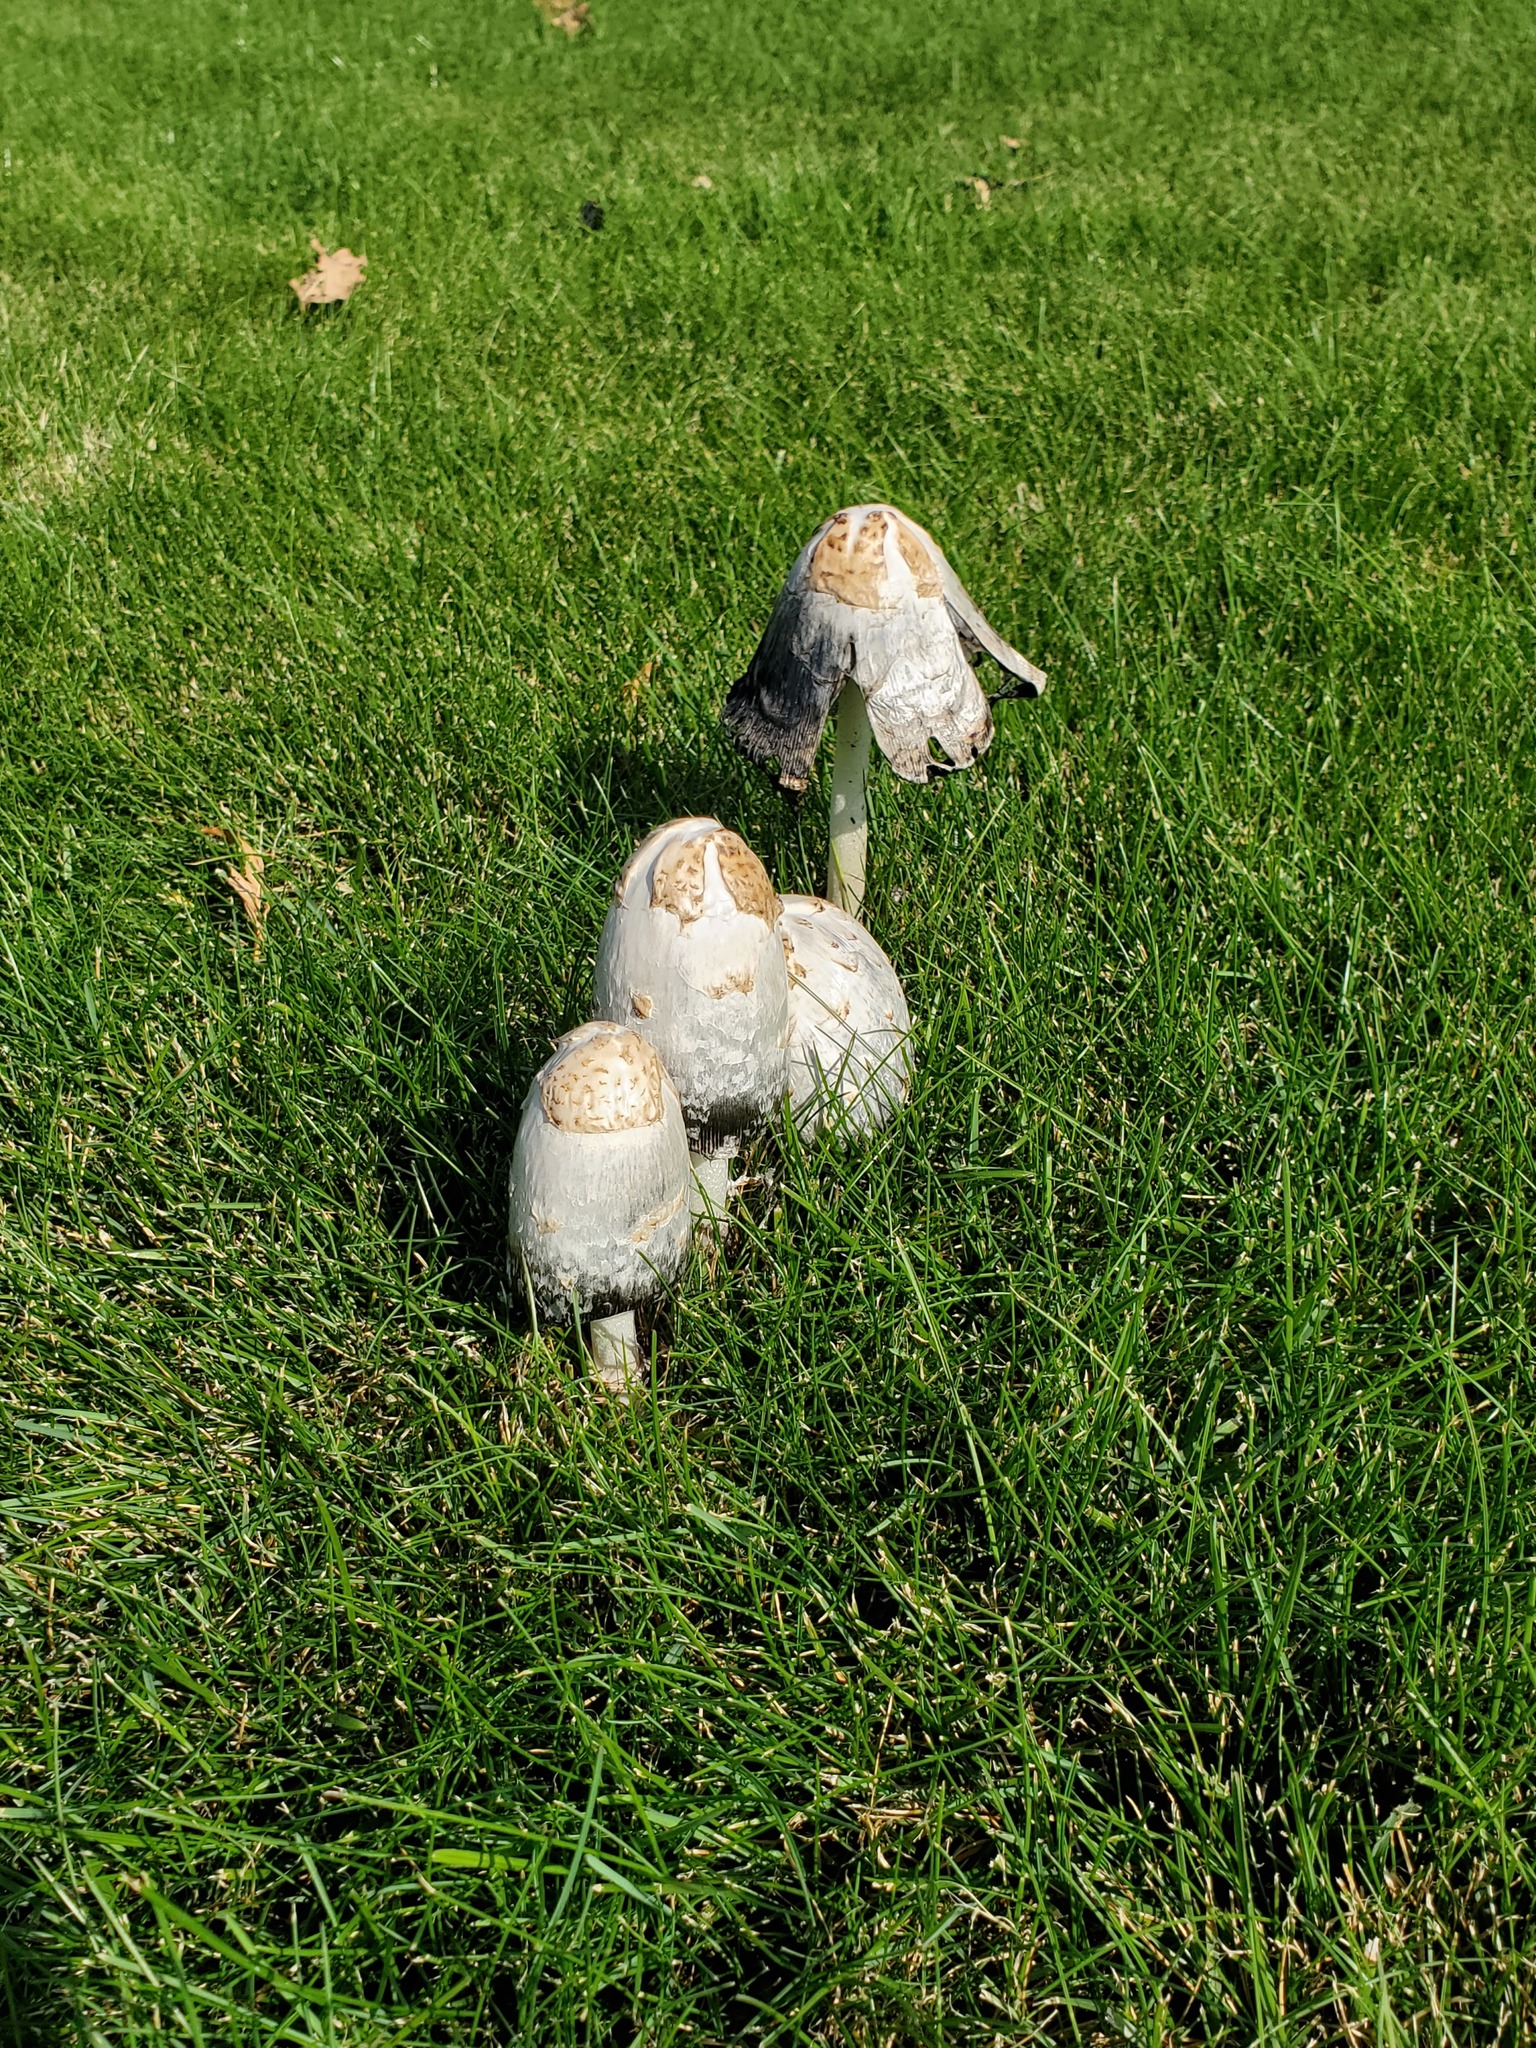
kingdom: Fungi
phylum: Basidiomycota
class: Agaricomycetes
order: Agaricales
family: Agaricaceae
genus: Coprinus
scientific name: Coprinus comatus
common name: Lawyer's wig
